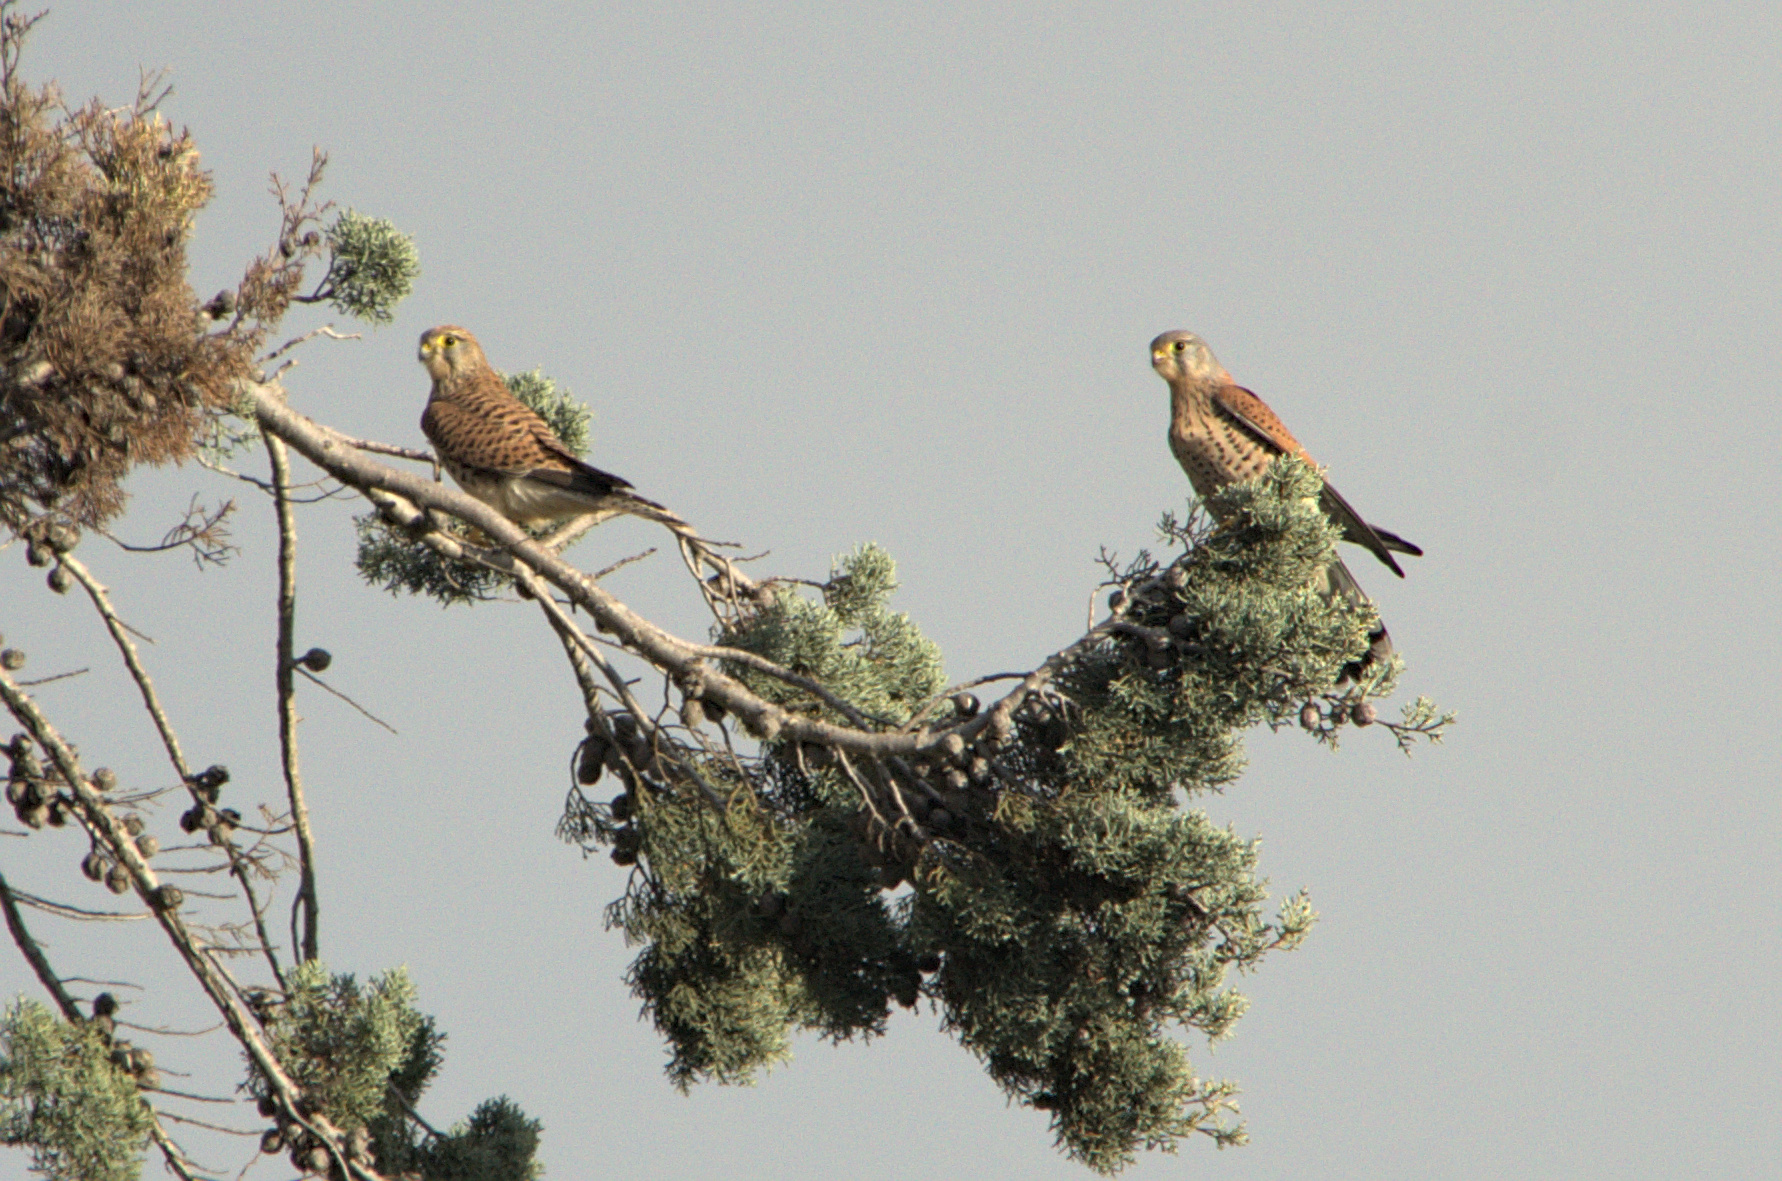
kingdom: Animalia
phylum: Chordata
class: Aves
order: Falconiformes
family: Falconidae
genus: Falco
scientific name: Falco tinnunculus
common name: Common kestrel
